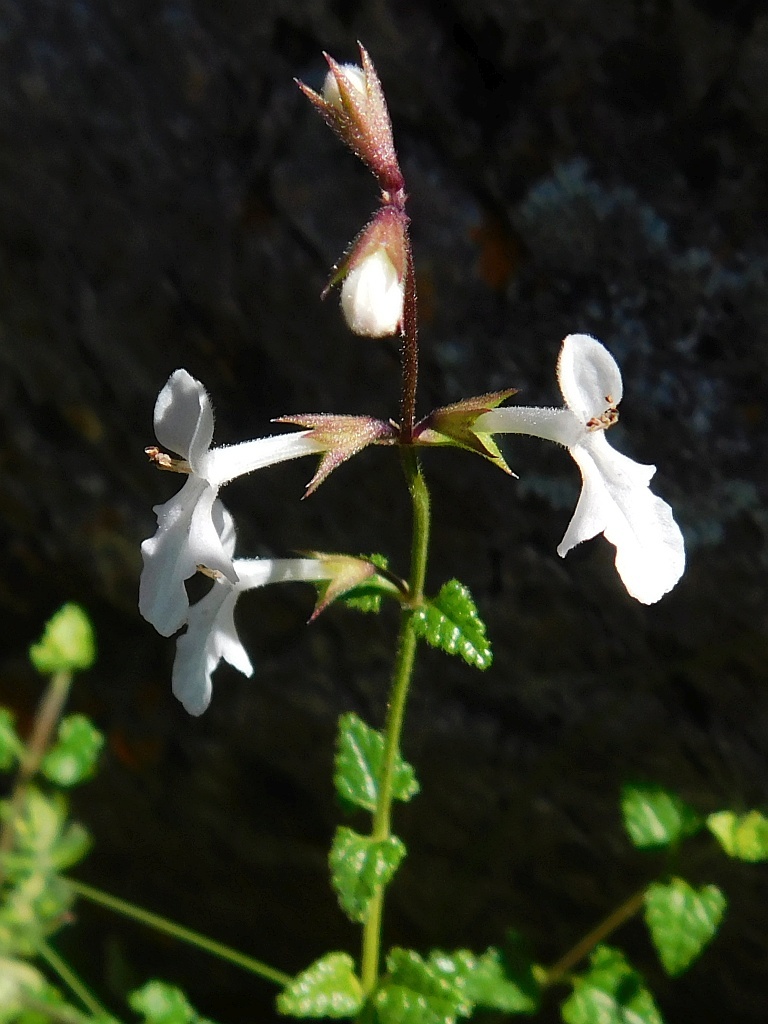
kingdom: Plantae
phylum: Tracheophyta
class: Magnoliopsida
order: Lamiales
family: Lamiaceae
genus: Stachys
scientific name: Stachys aethiopica
